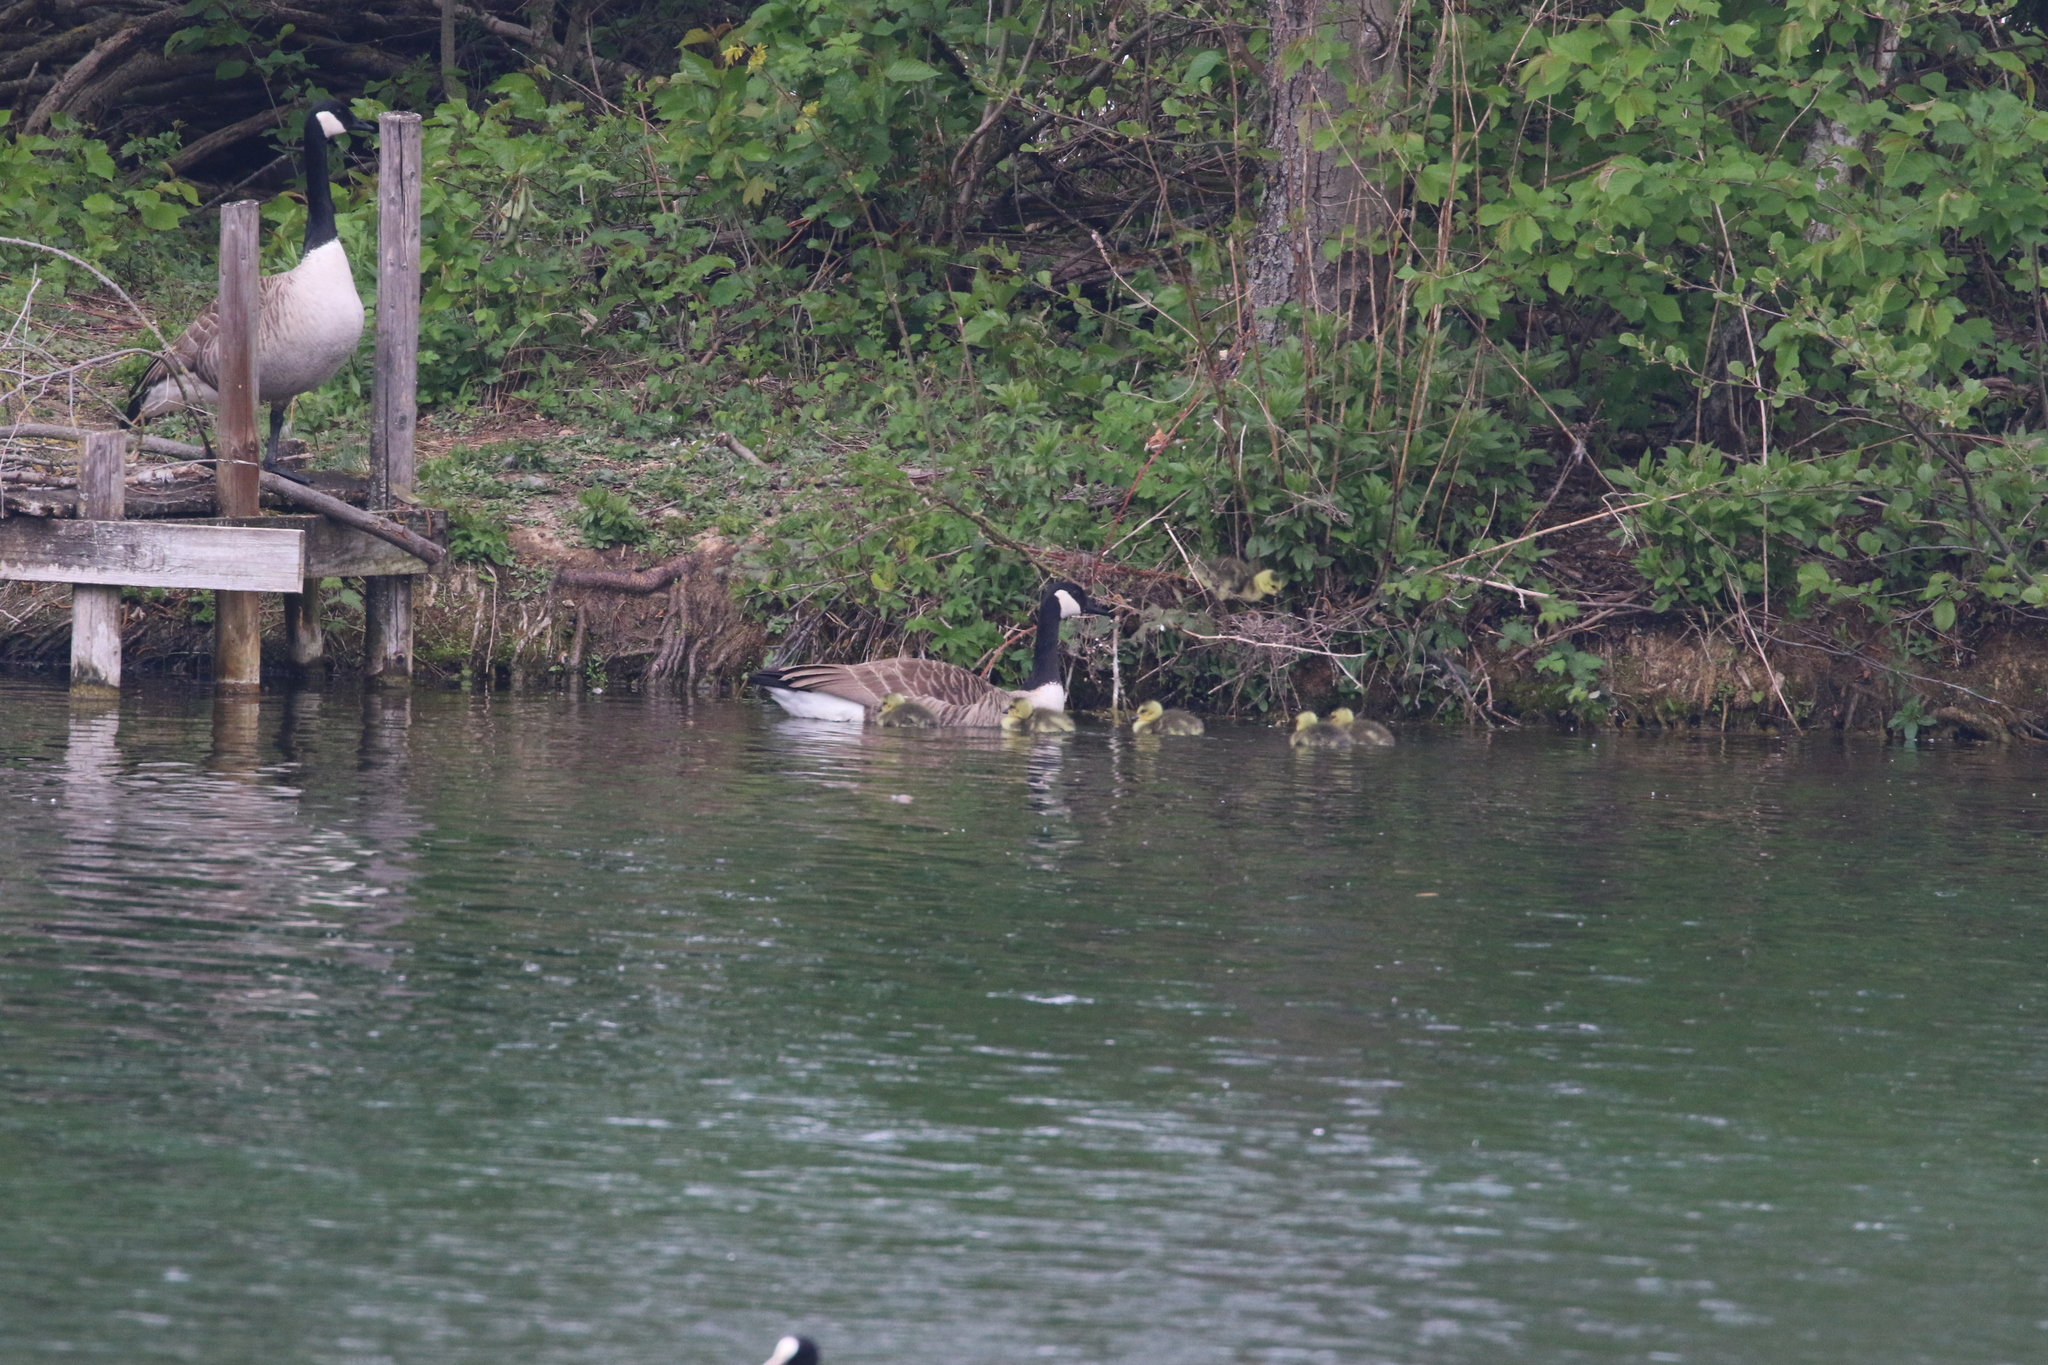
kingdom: Animalia
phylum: Chordata
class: Aves
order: Anseriformes
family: Anatidae
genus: Branta
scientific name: Branta canadensis
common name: Canada goose
